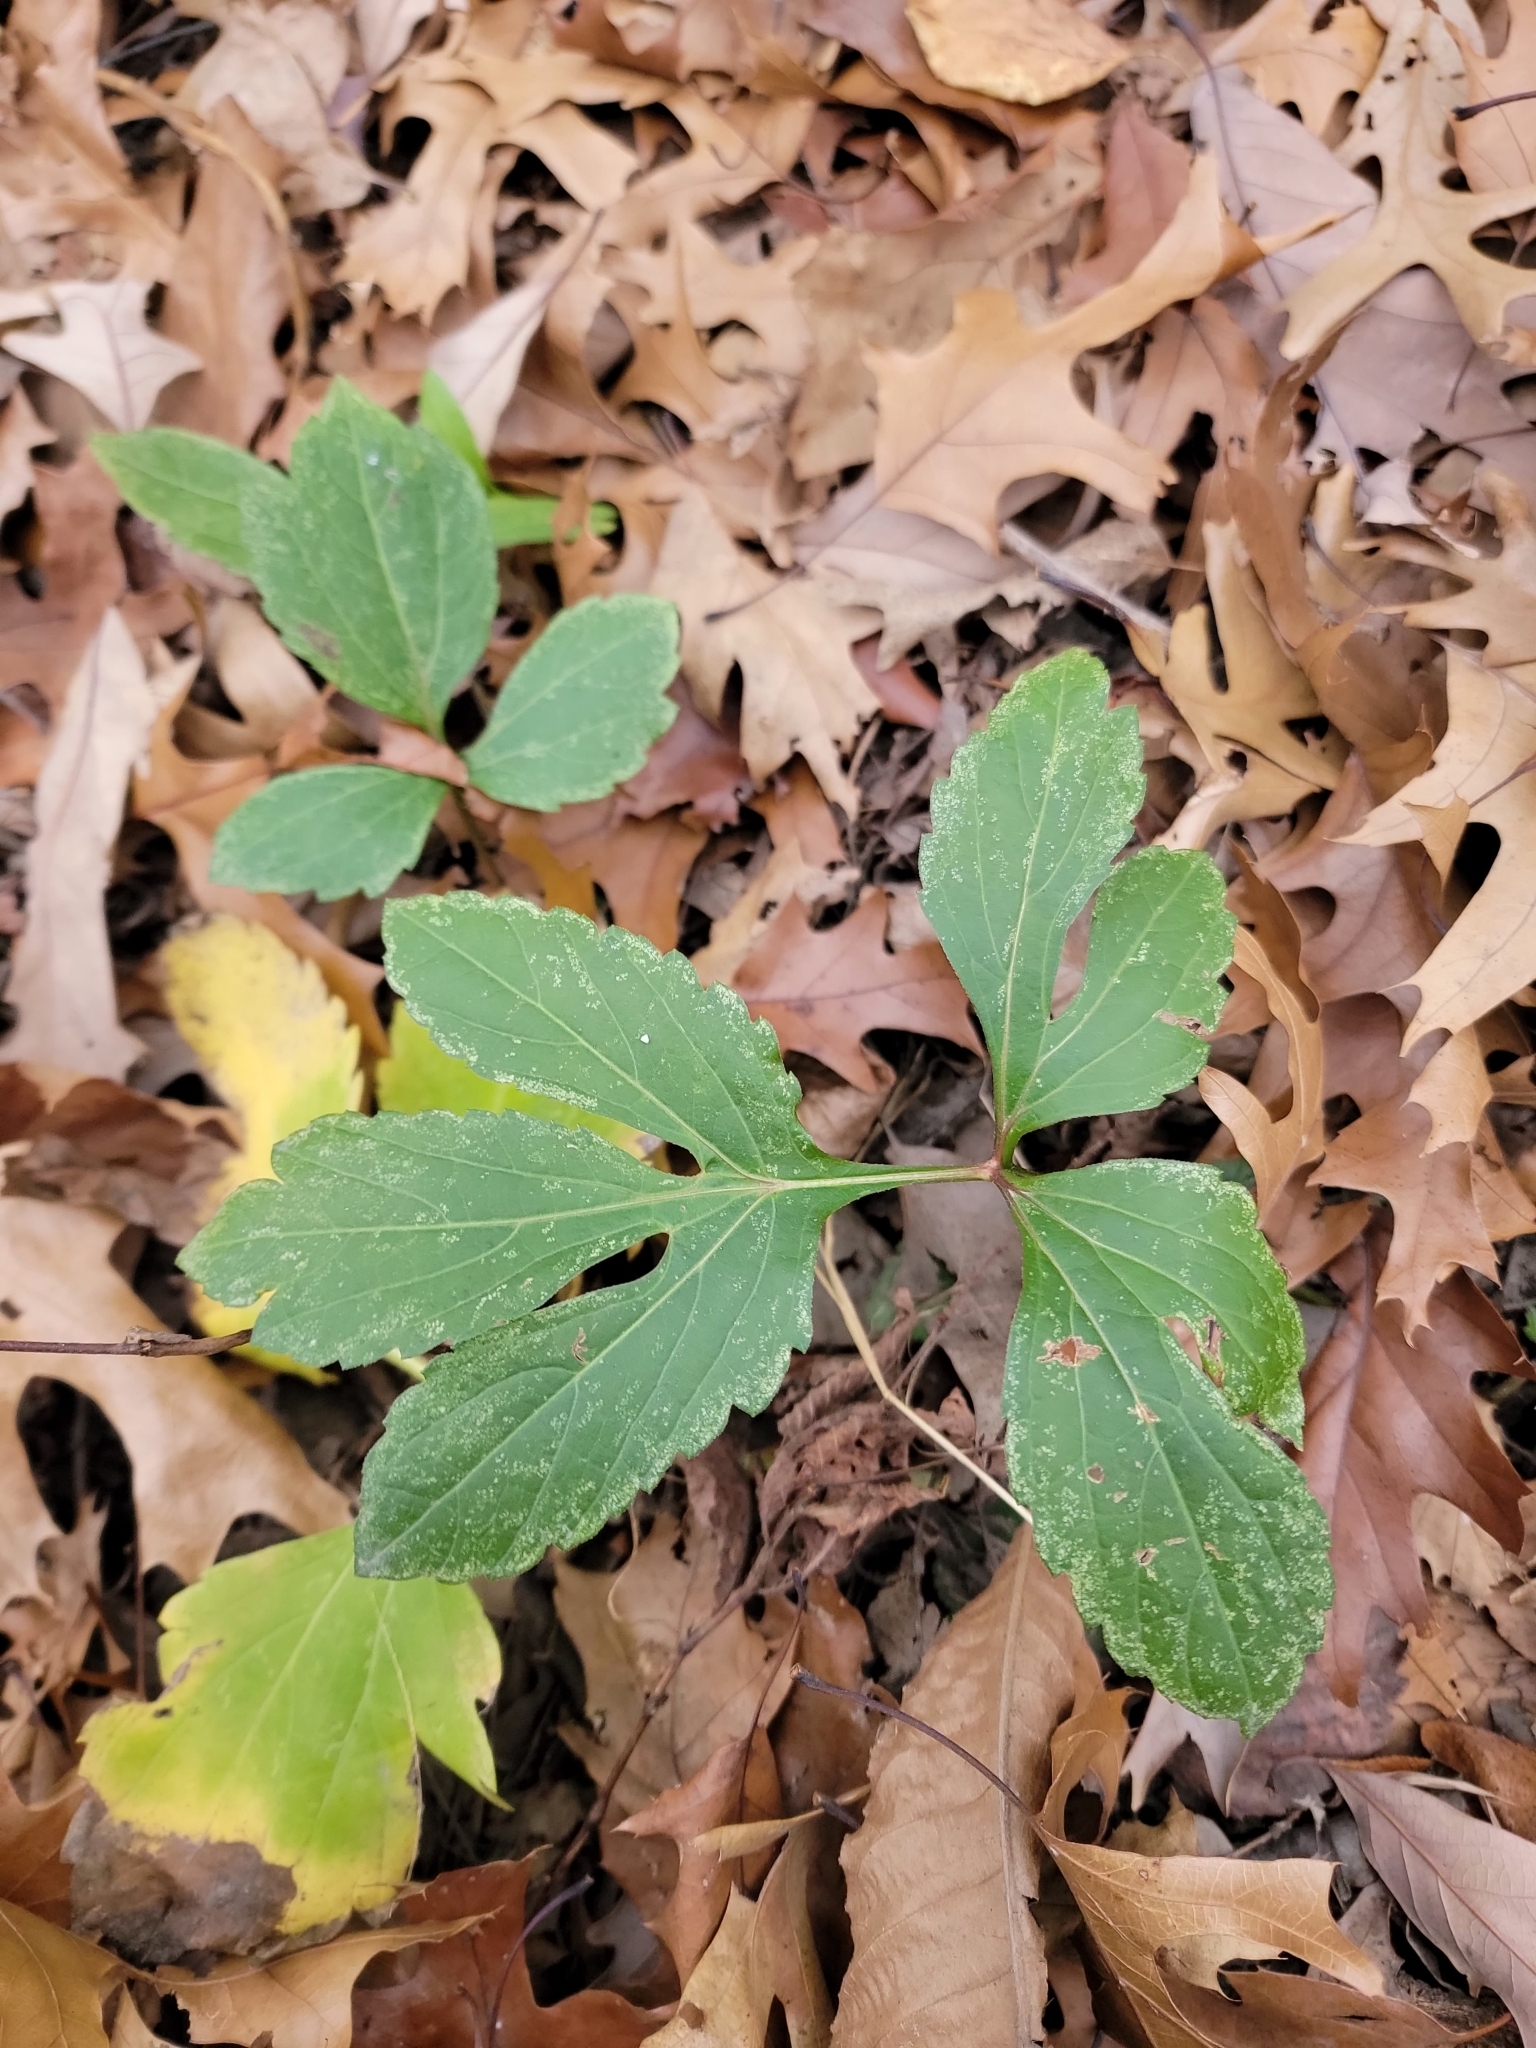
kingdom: Plantae
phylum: Tracheophyta
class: Magnoliopsida
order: Asterales
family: Asteraceae
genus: Rudbeckia
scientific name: Rudbeckia laciniata
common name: Coneflower
